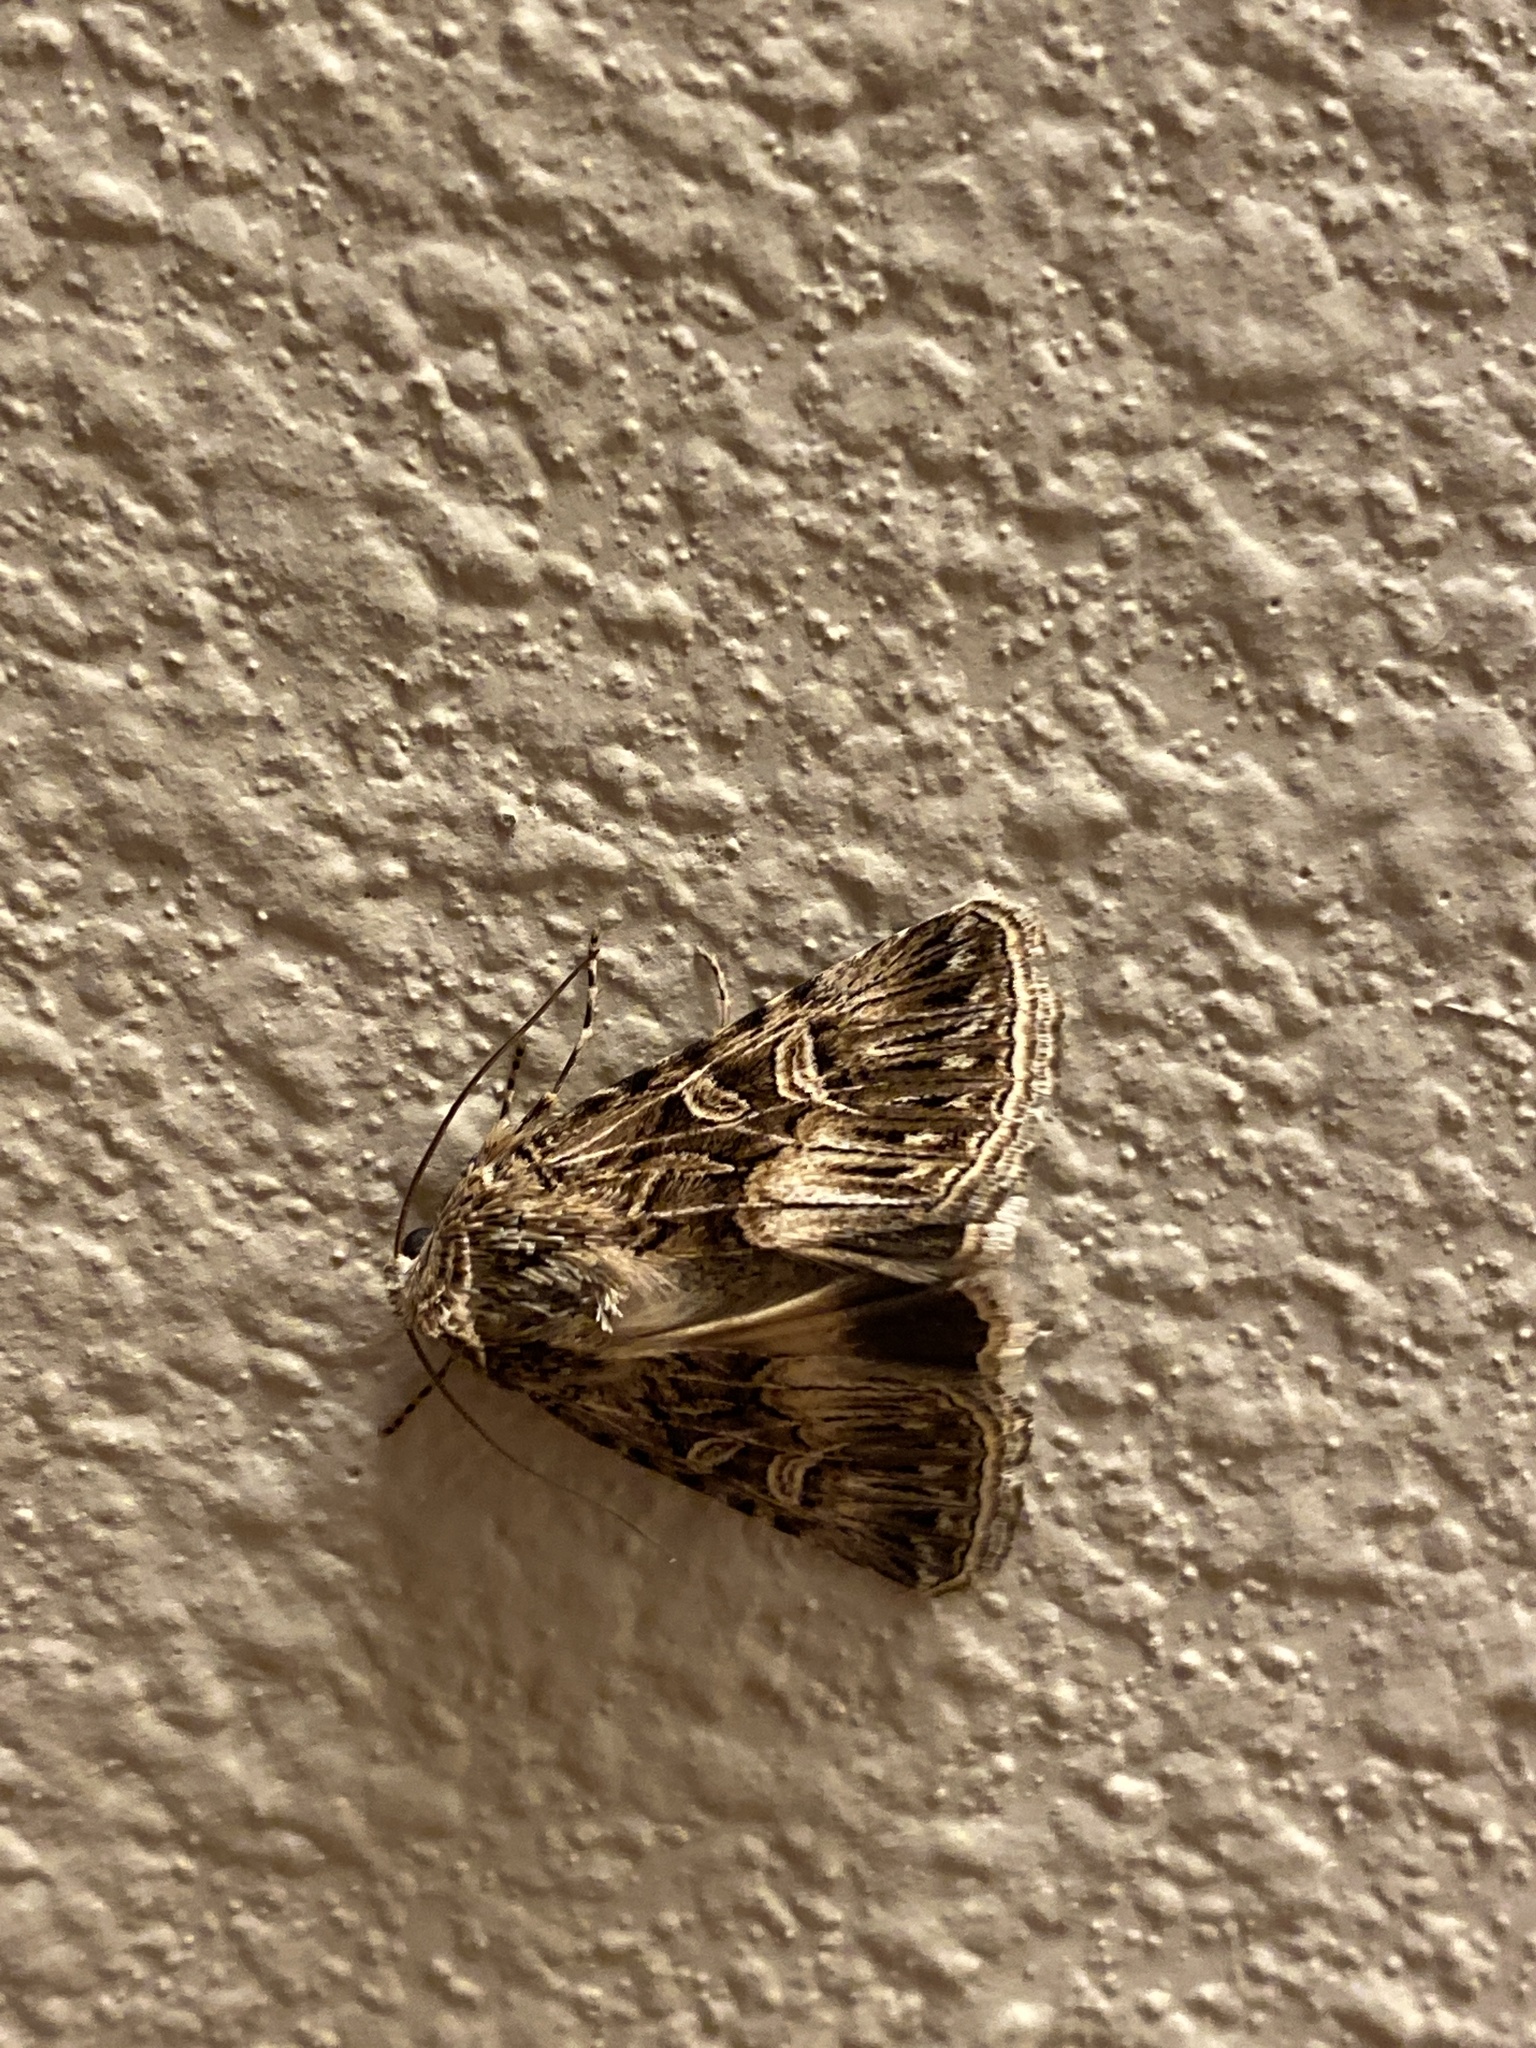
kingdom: Animalia
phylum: Arthropoda
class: Insecta
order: Lepidoptera
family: Noctuidae
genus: Sympistis
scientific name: Sympistis sanina
